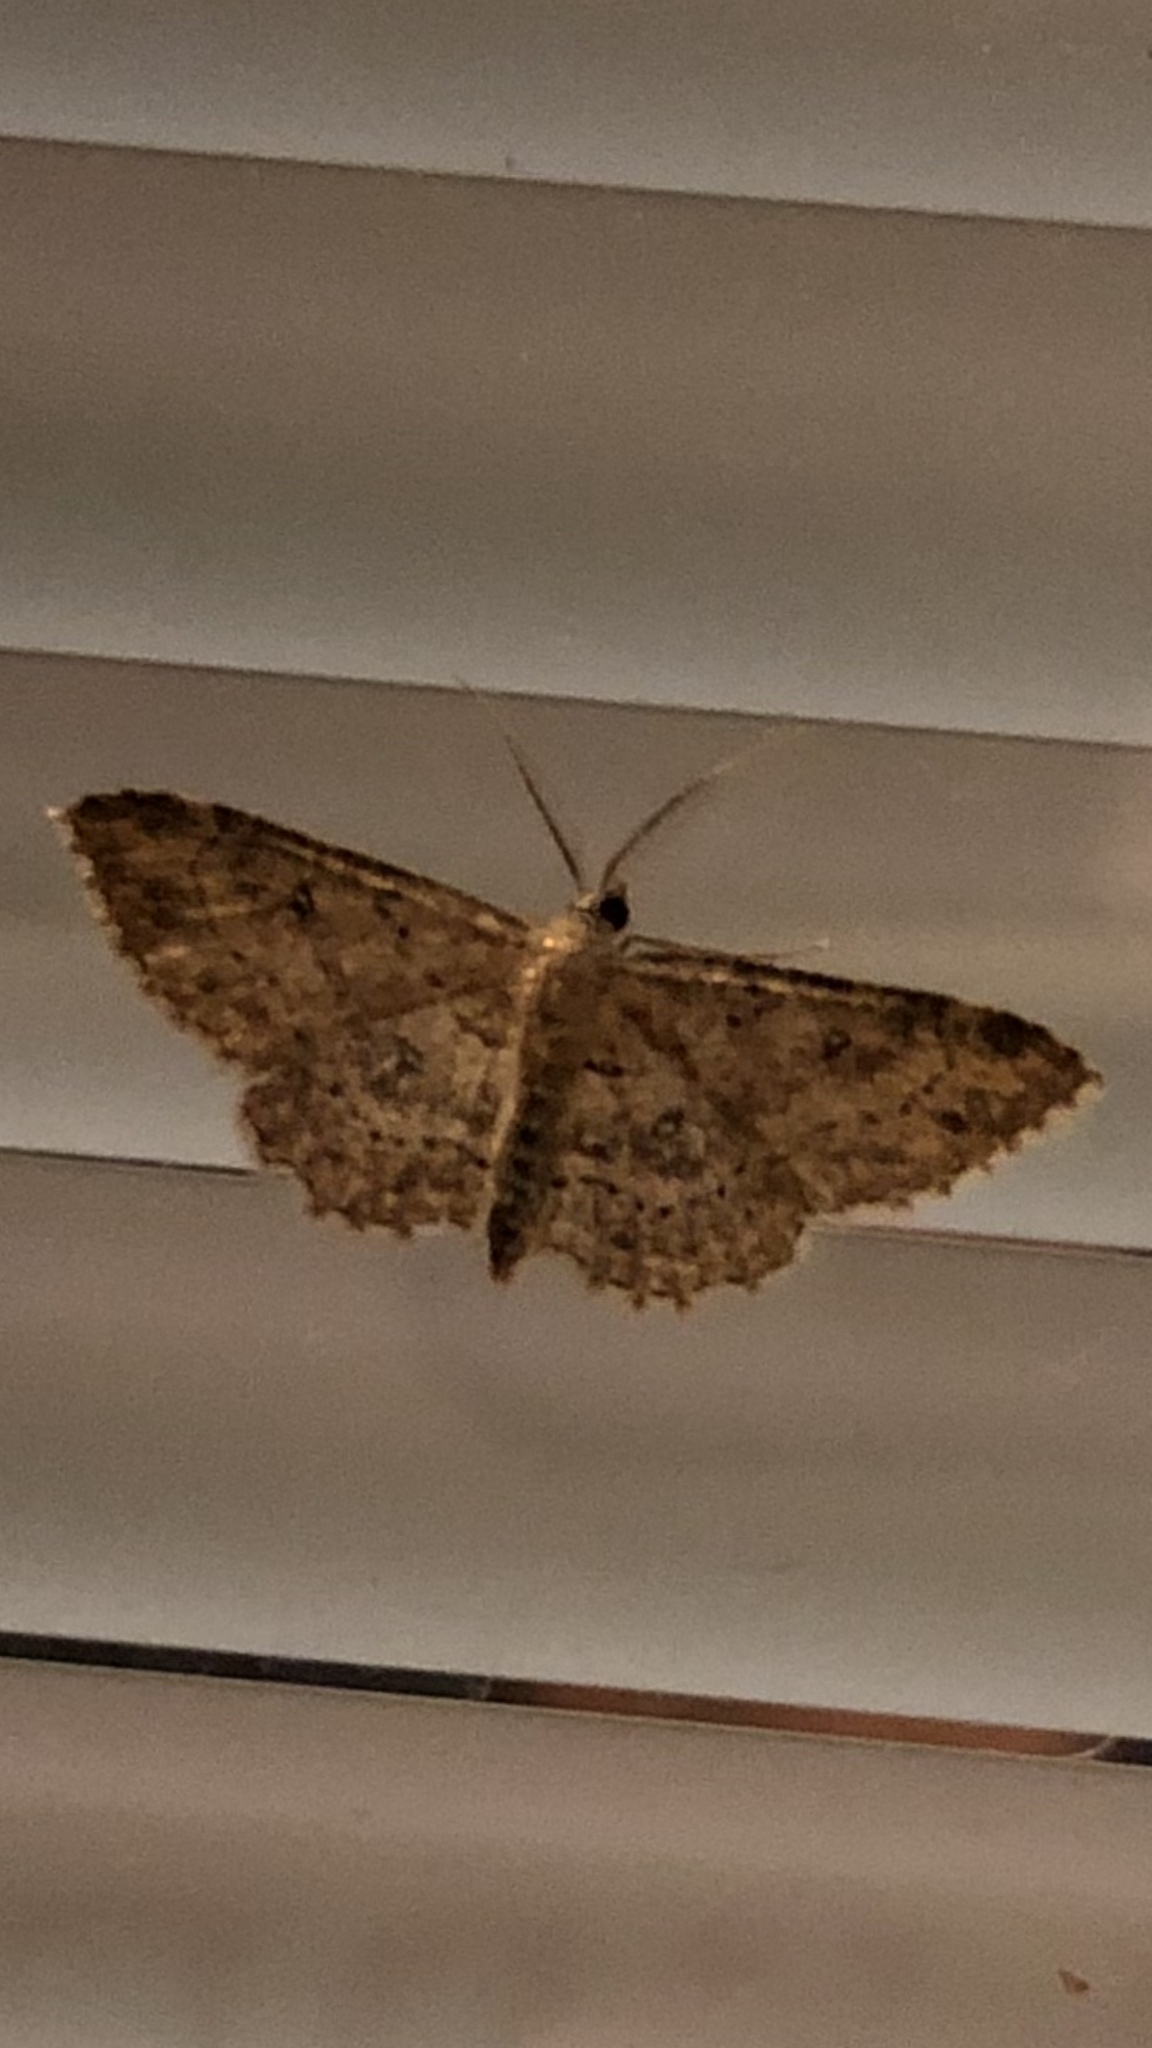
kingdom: Animalia
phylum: Arthropoda
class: Insecta
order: Lepidoptera
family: Geometridae
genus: Cyclophora
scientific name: Cyclophora nanaria
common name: Cankerworm
